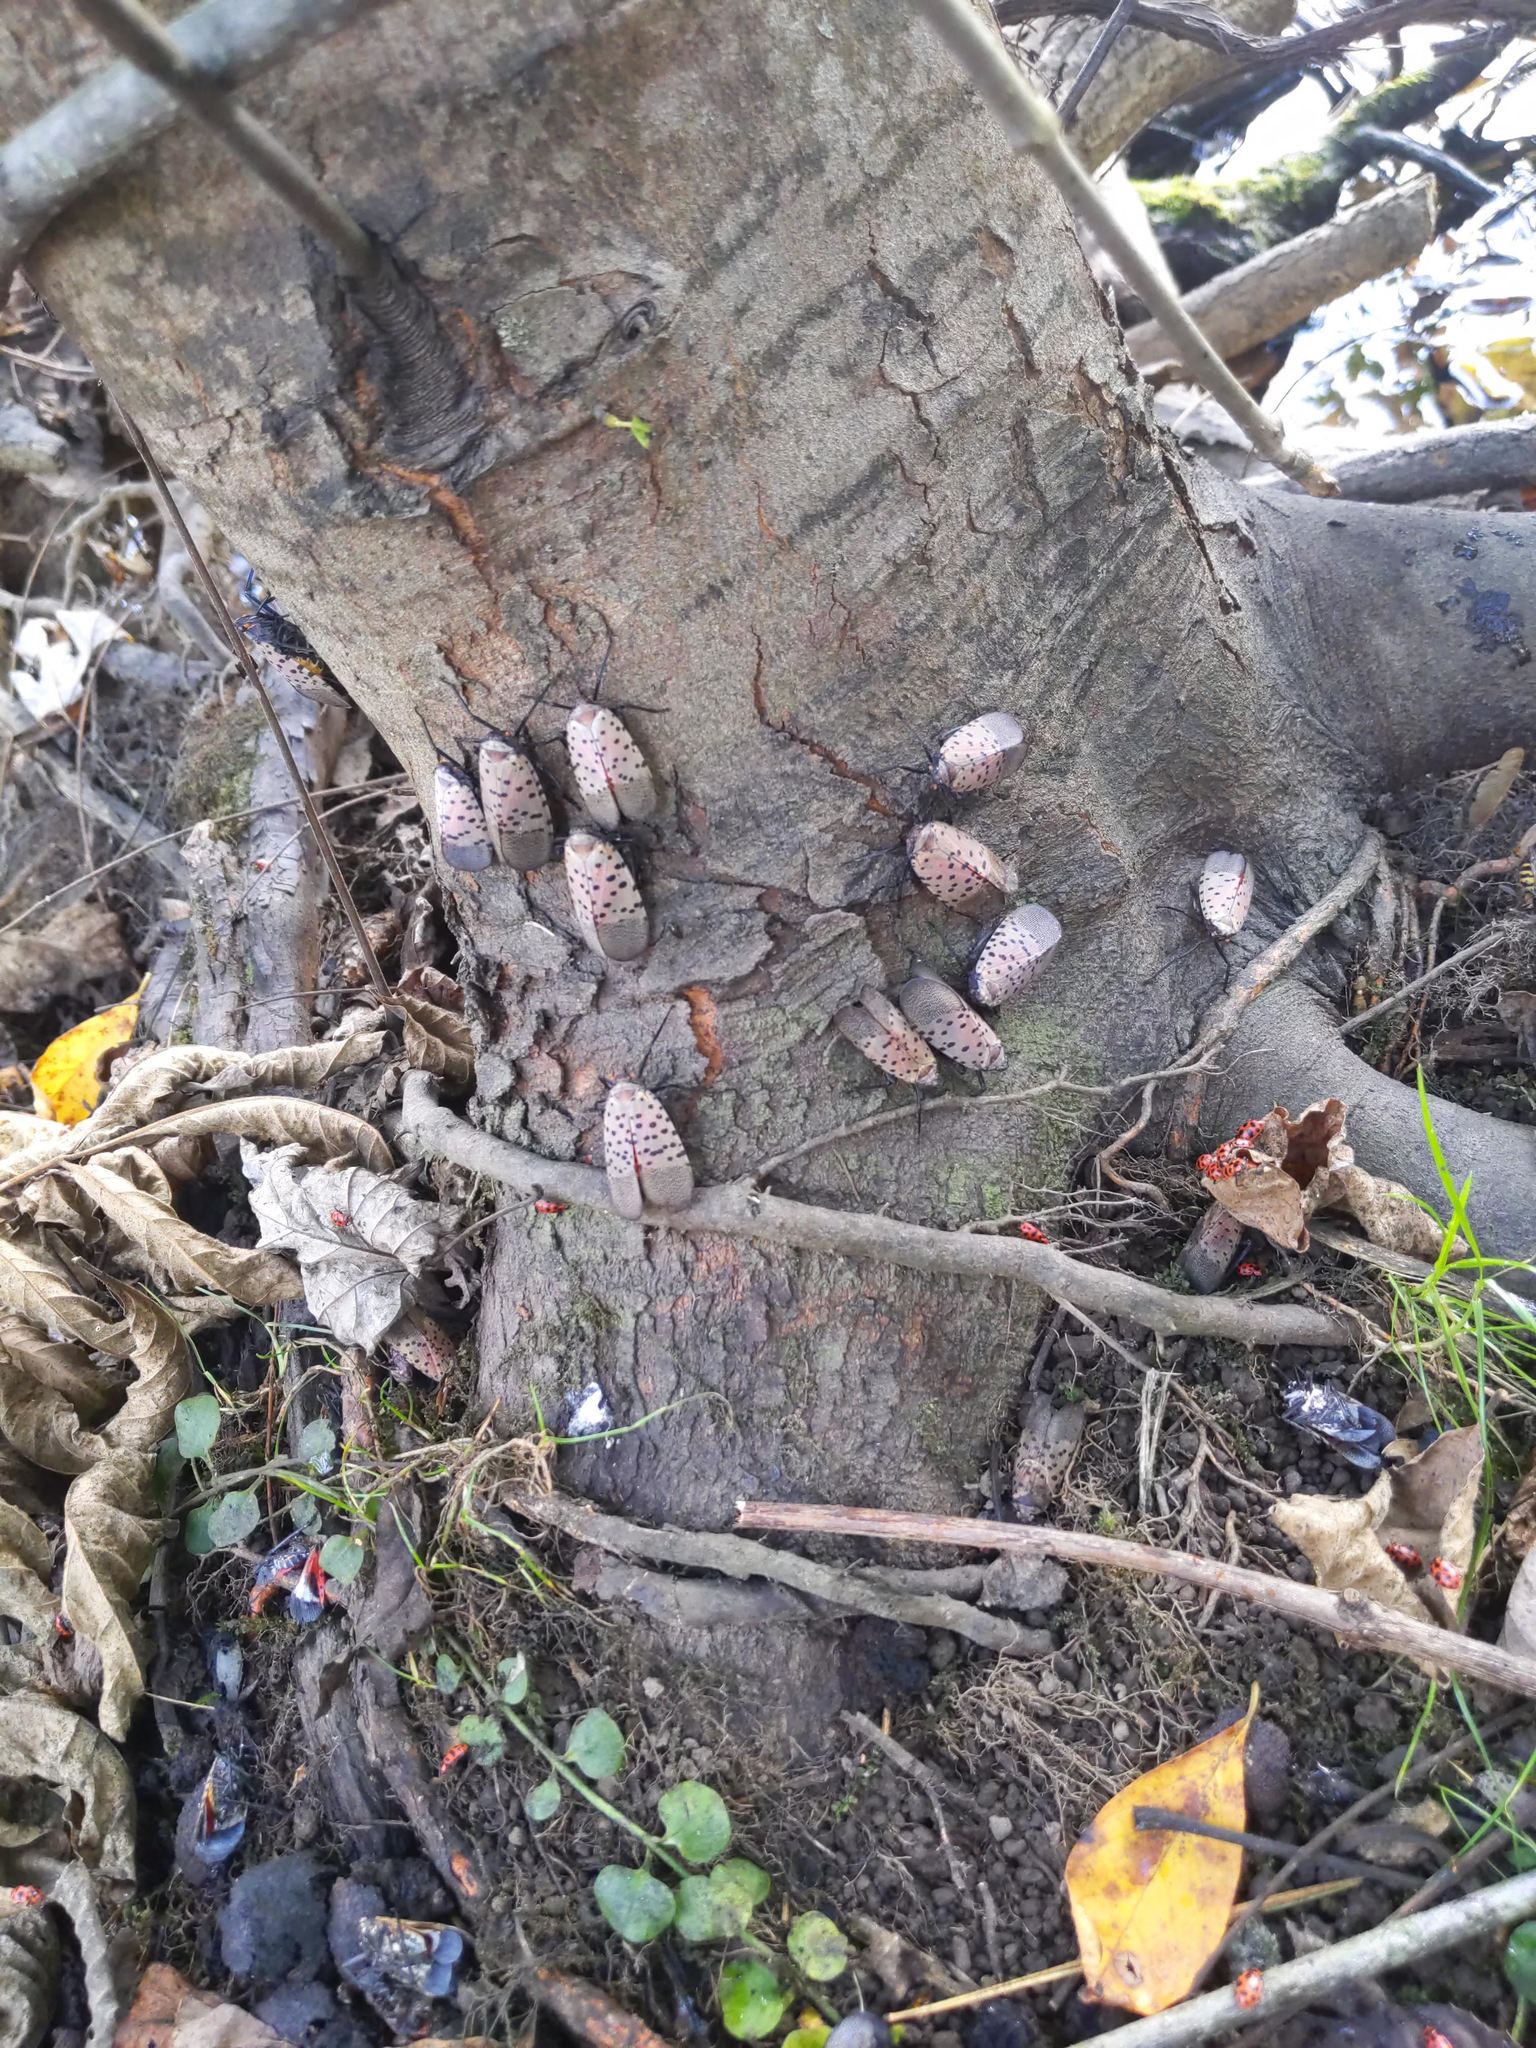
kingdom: Animalia
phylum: Arthropoda
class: Insecta
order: Hemiptera
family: Fulgoridae
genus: Lycorma
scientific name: Lycorma delicatula
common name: Spotted lanternfly
